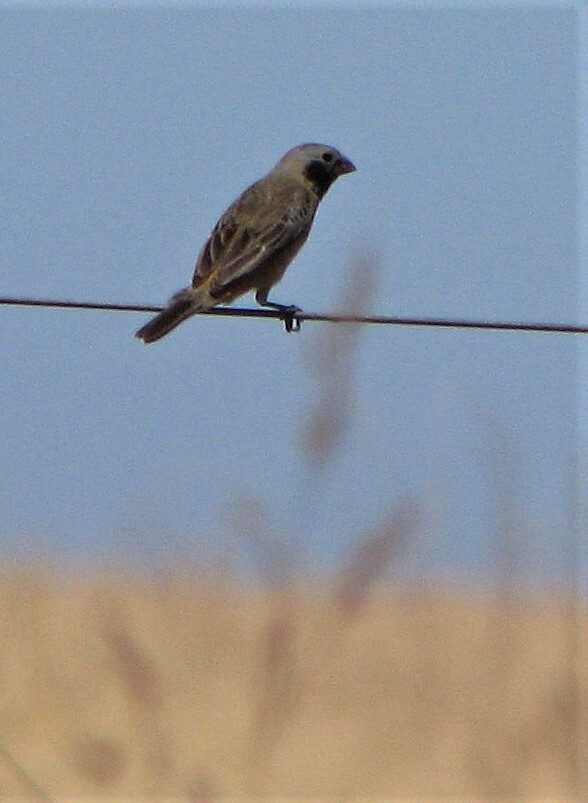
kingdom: Animalia
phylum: Chordata
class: Aves
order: Passeriformes
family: Thraupidae
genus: Sporophila
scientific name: Sporophila ruficollis
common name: Dark-throated seedeater
